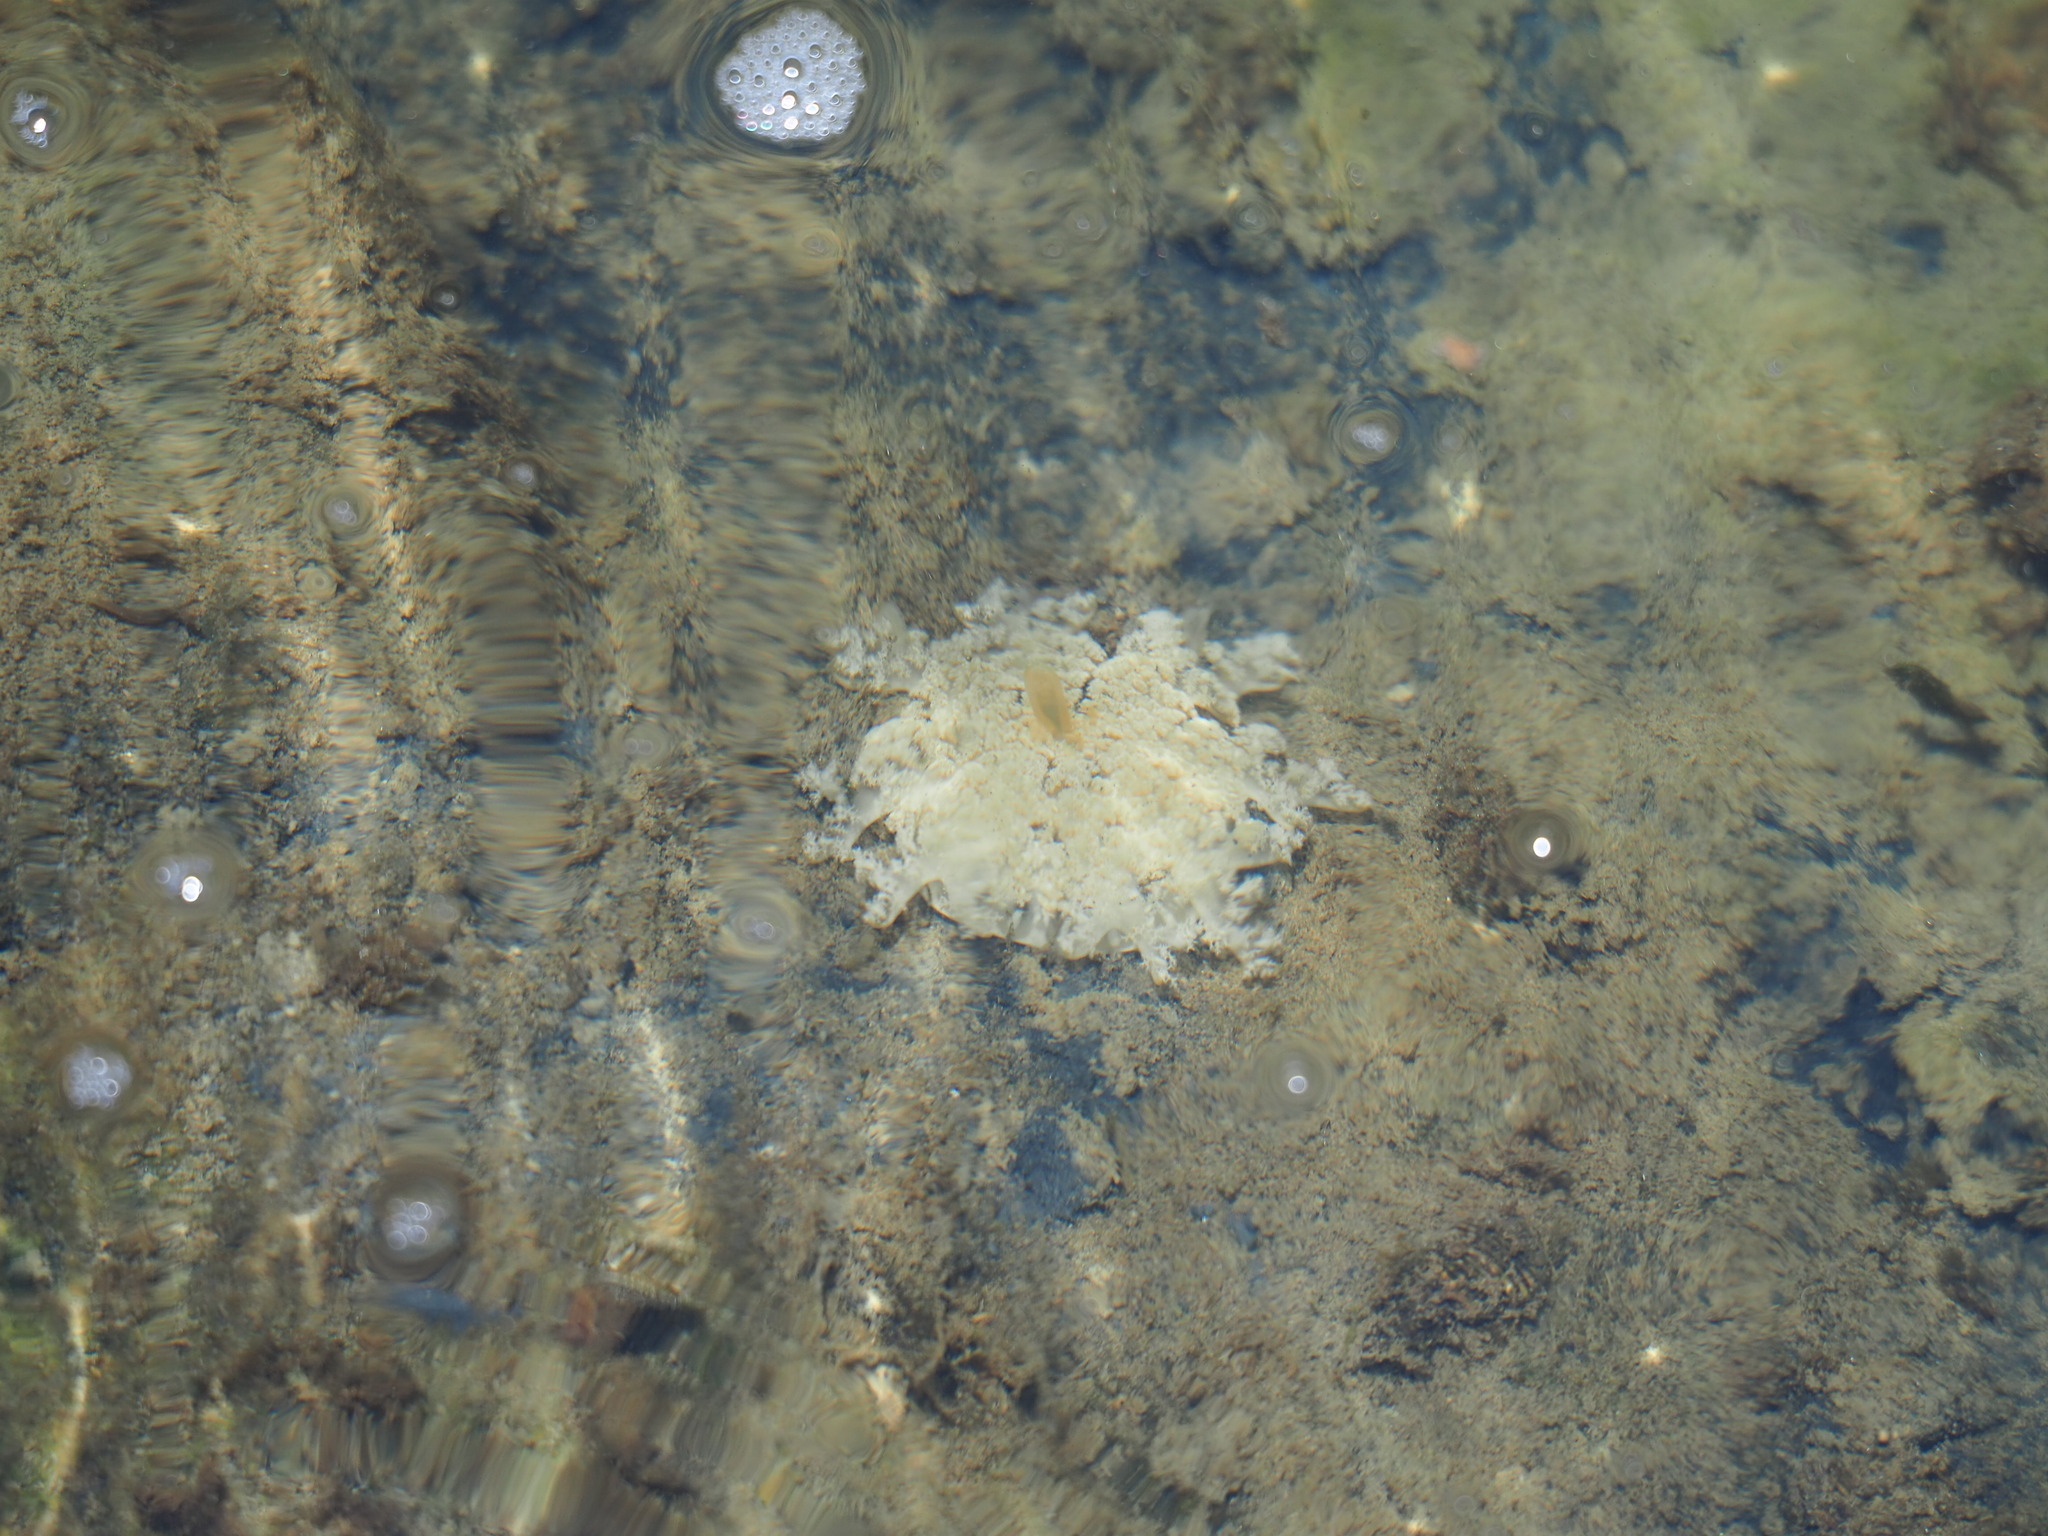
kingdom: Animalia
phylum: Cnidaria
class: Scyphozoa
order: Rhizostomeae
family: Cassiopeidae
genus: Cassiopea
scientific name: Cassiopea andromeda
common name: Upside-down jellyfish
